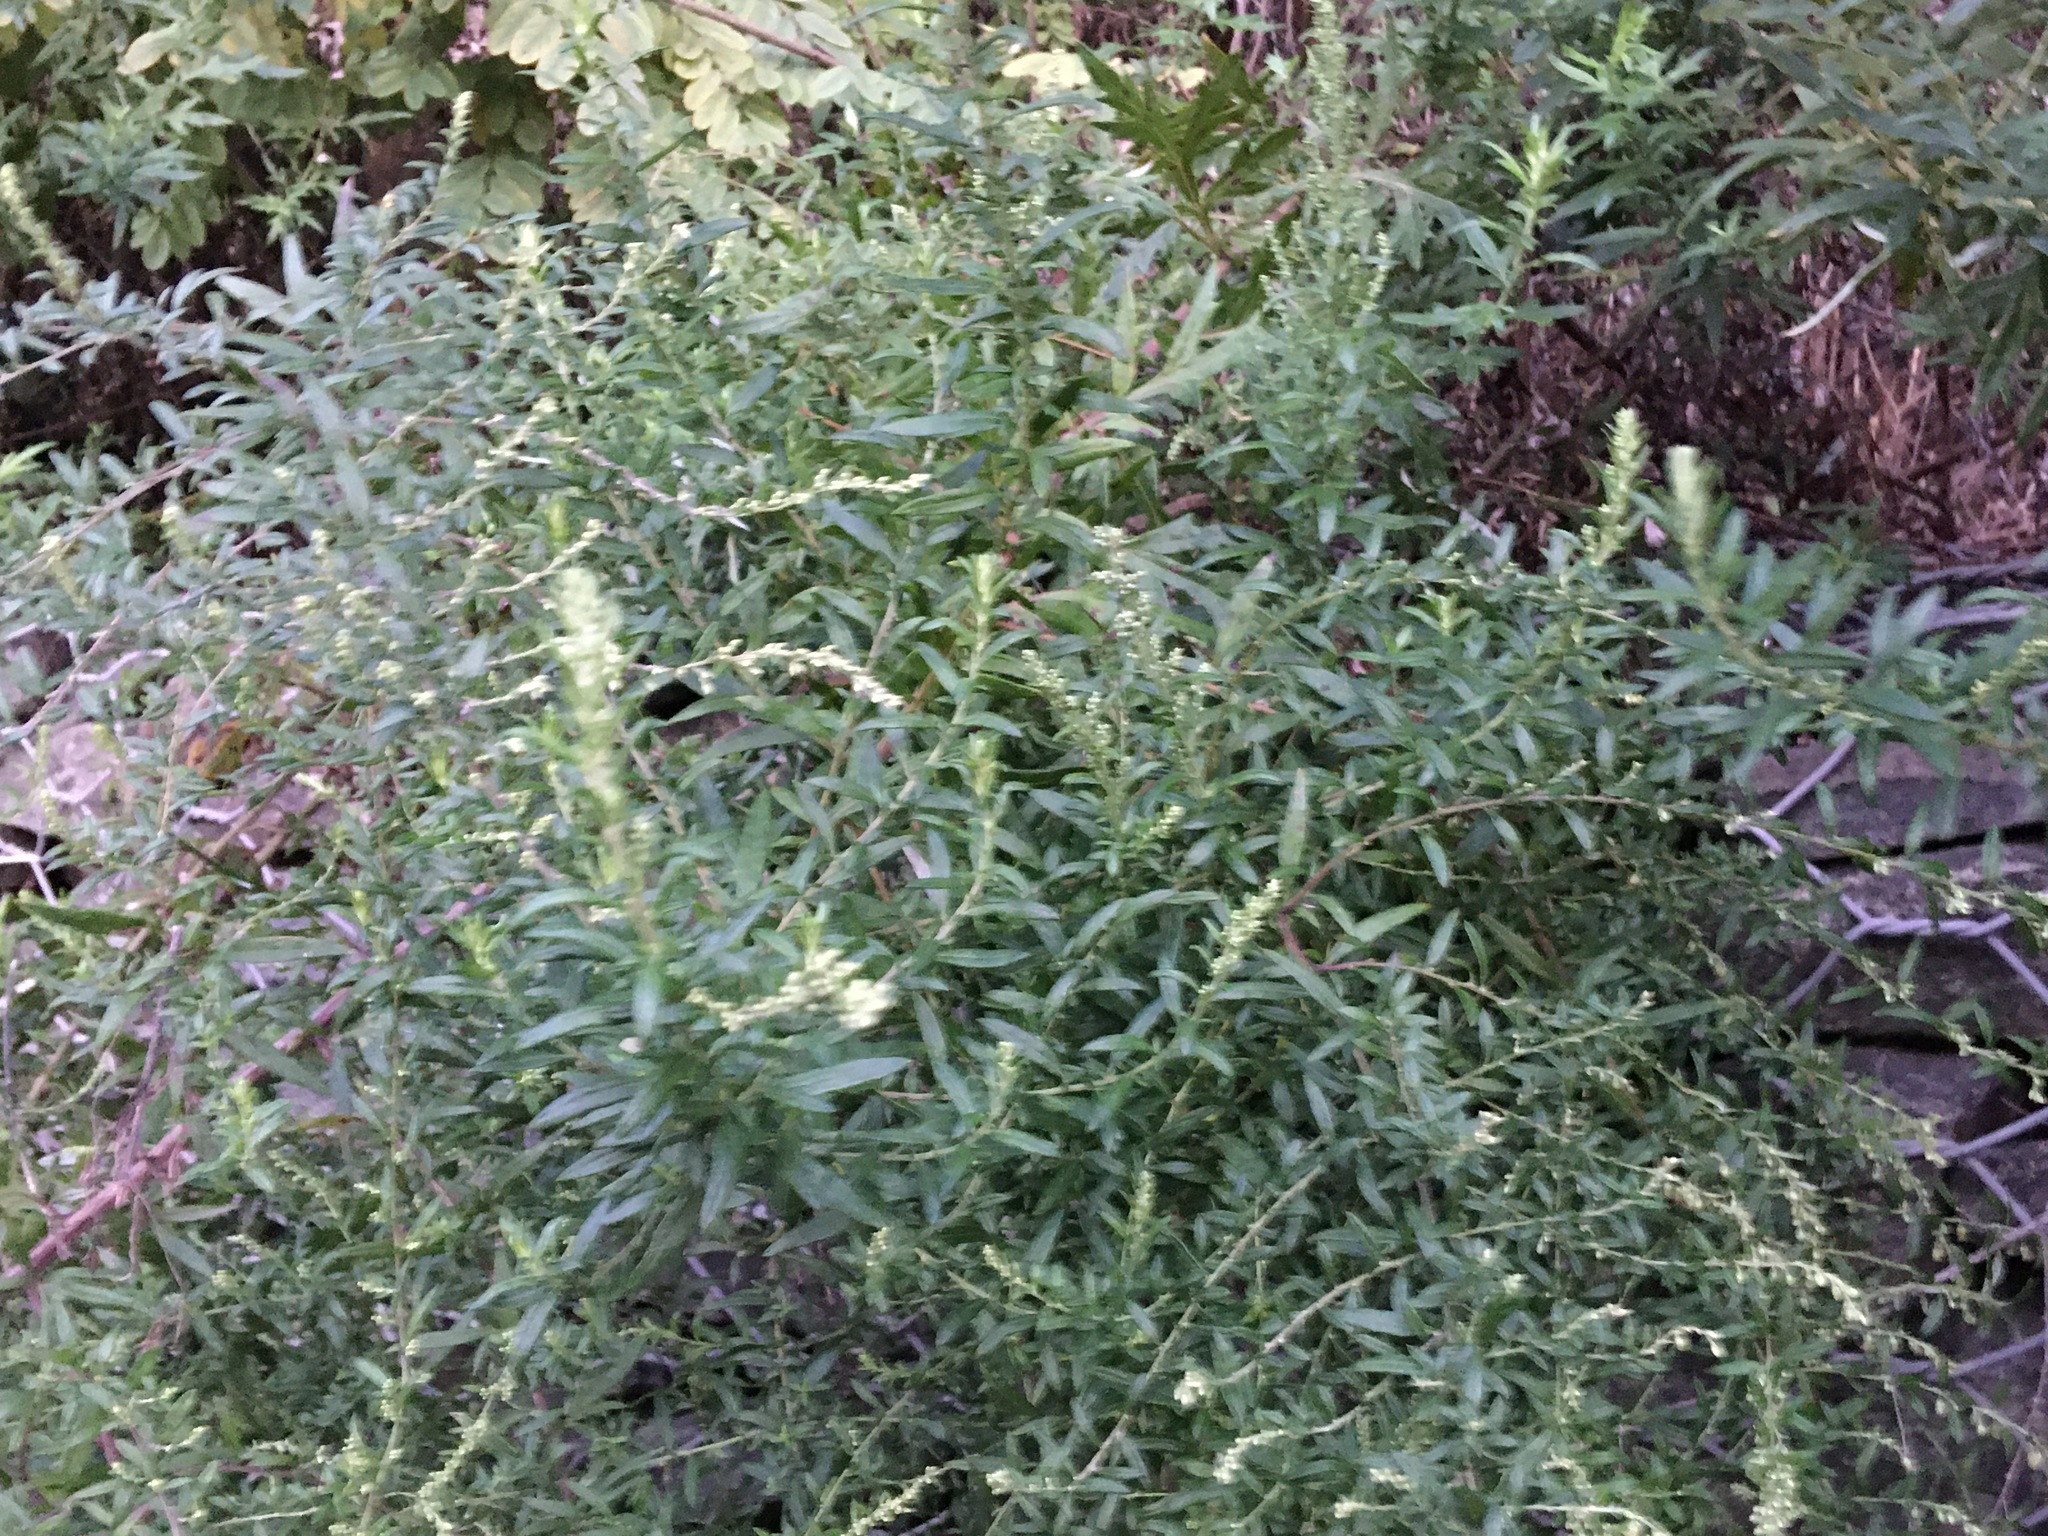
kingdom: Plantae
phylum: Tracheophyta
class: Magnoliopsida
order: Asterales
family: Asteraceae
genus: Artemisia
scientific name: Artemisia vulgaris
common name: Mugwort
